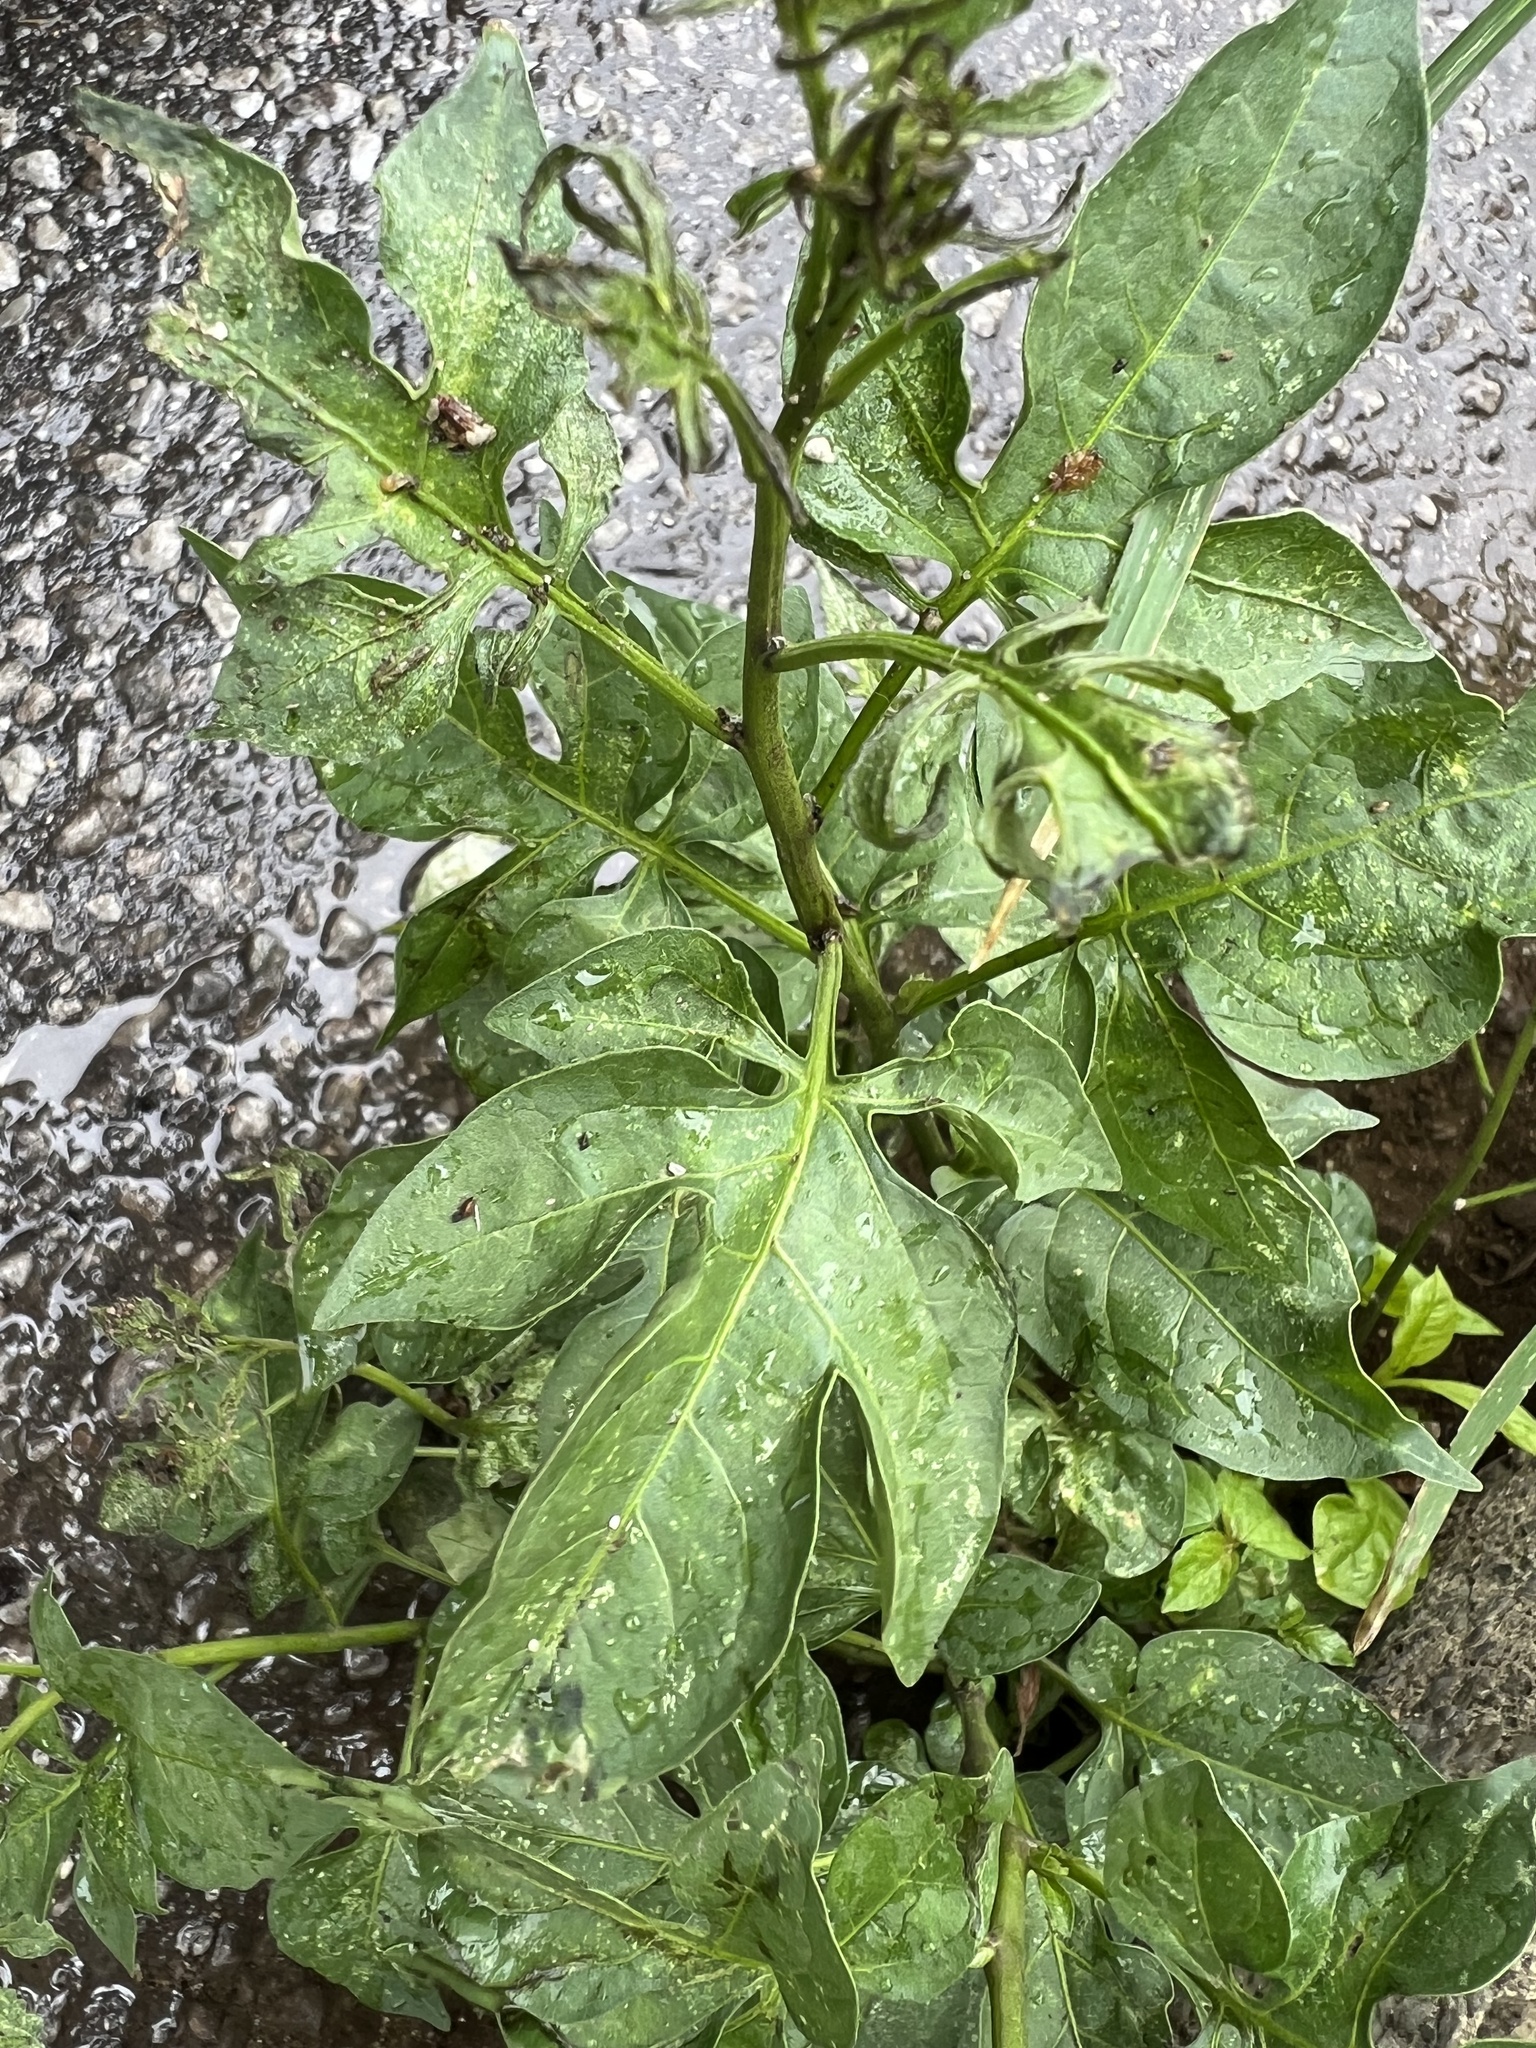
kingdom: Plantae
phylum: Tracheophyta
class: Magnoliopsida
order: Solanales
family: Solanaceae
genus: Solanum
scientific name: Solanum dulcamara
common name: Climbing nightshade
